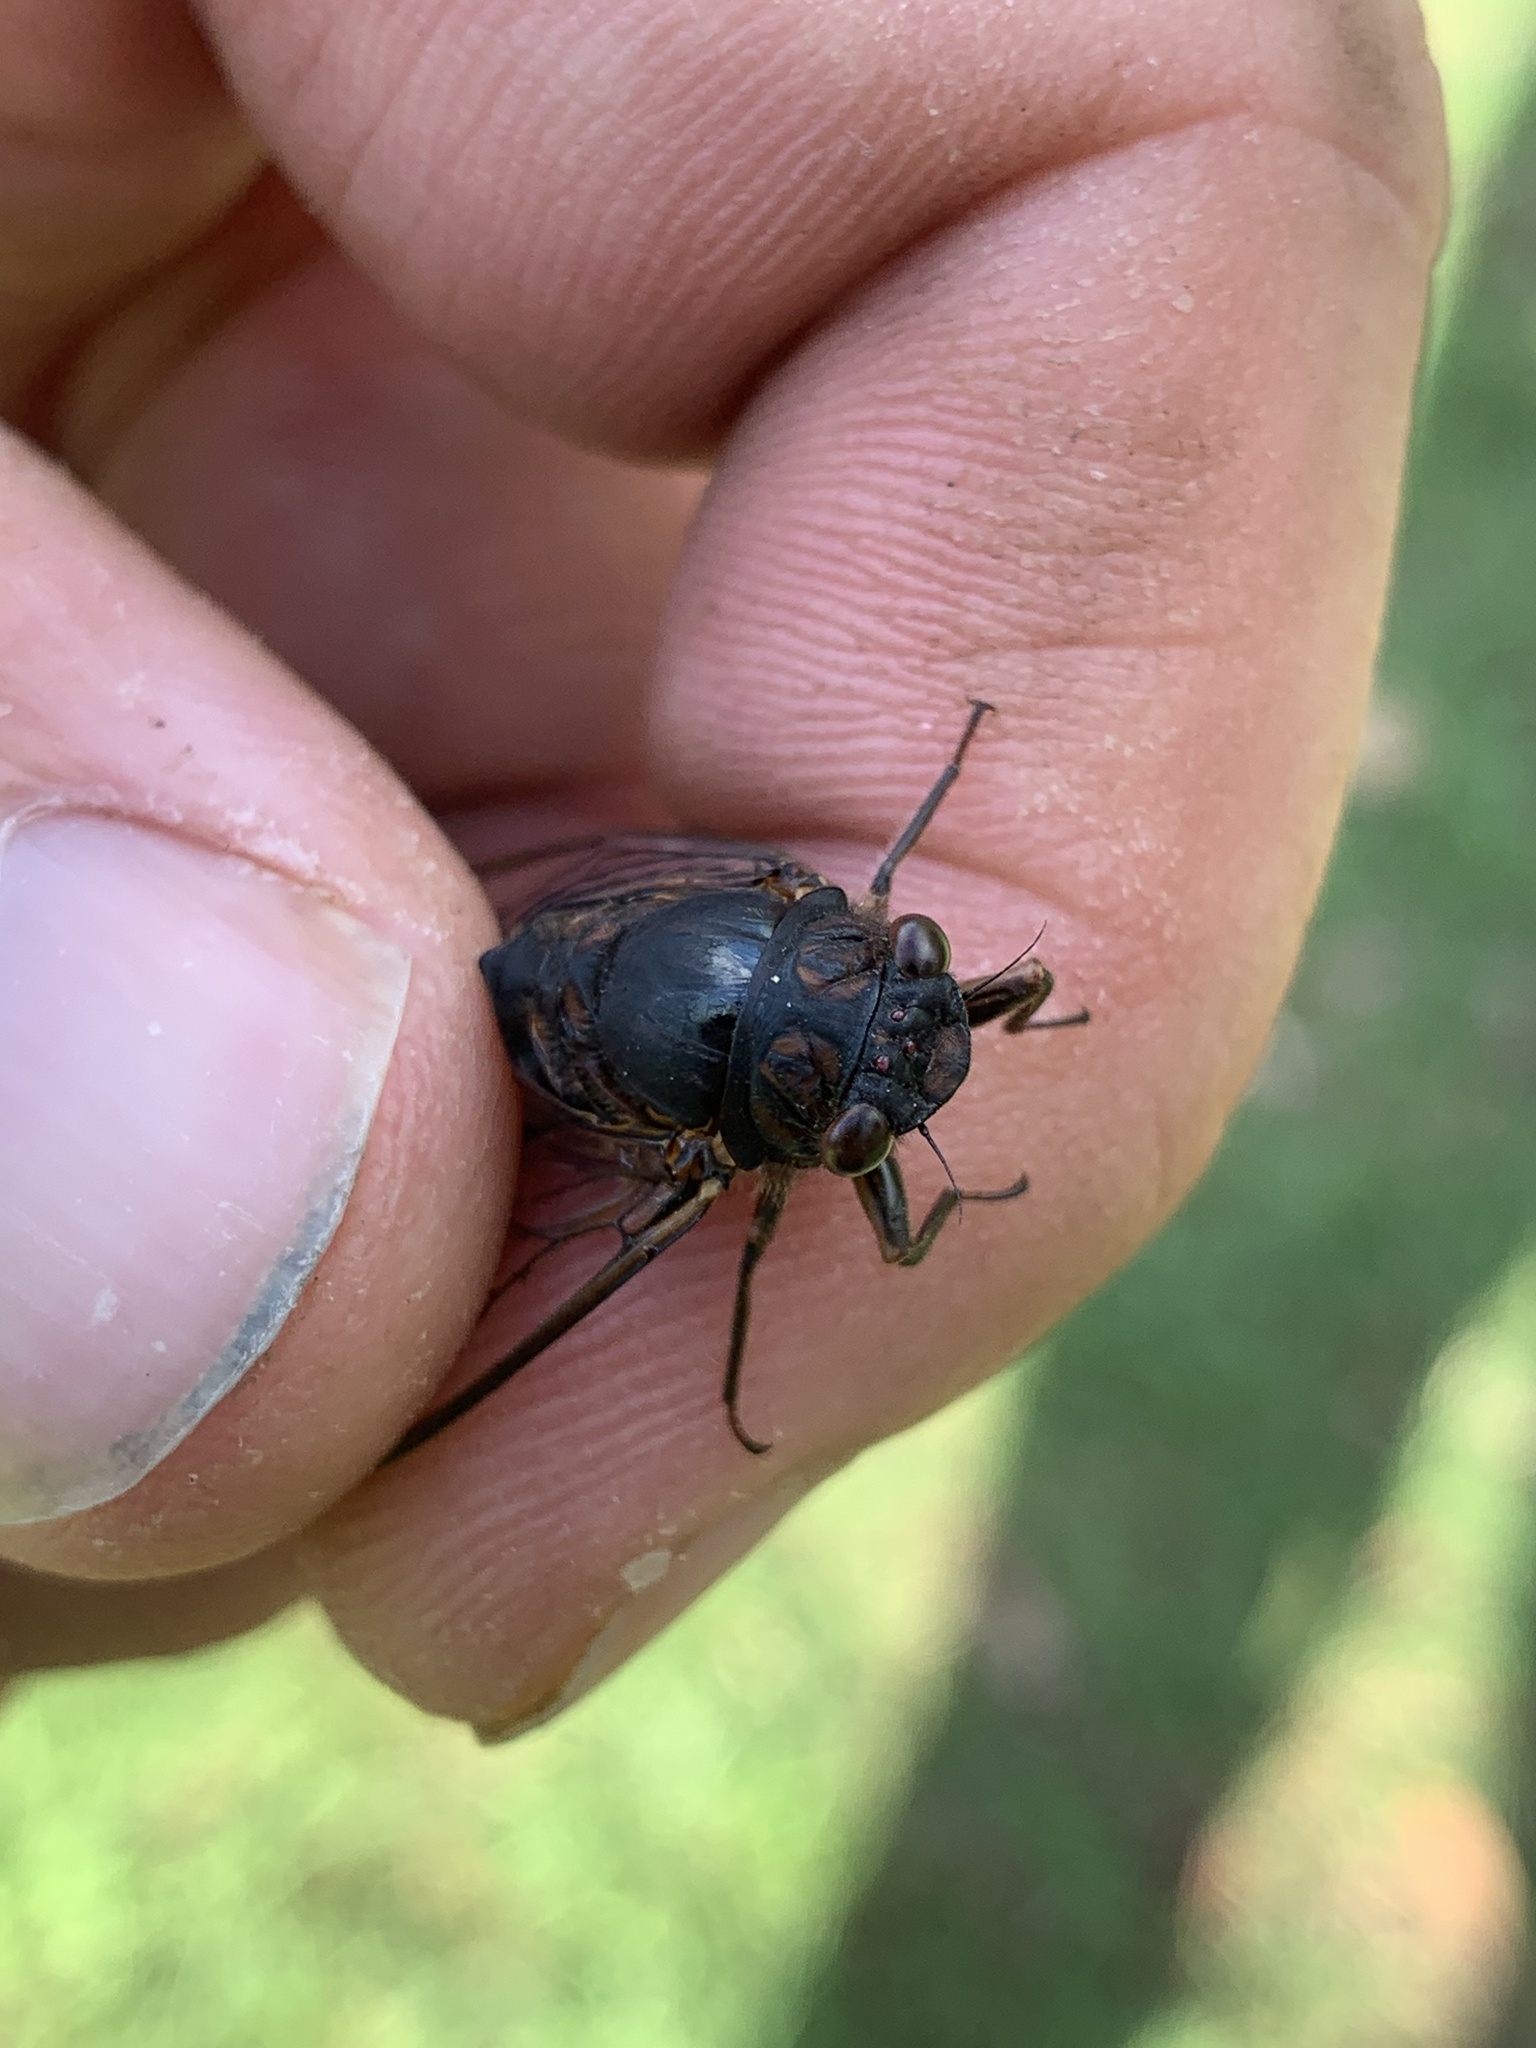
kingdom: Animalia
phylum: Arthropoda
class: Insecta
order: Hemiptera
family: Cicadidae
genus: Yoyetta
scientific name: Yoyetta humphreyae
